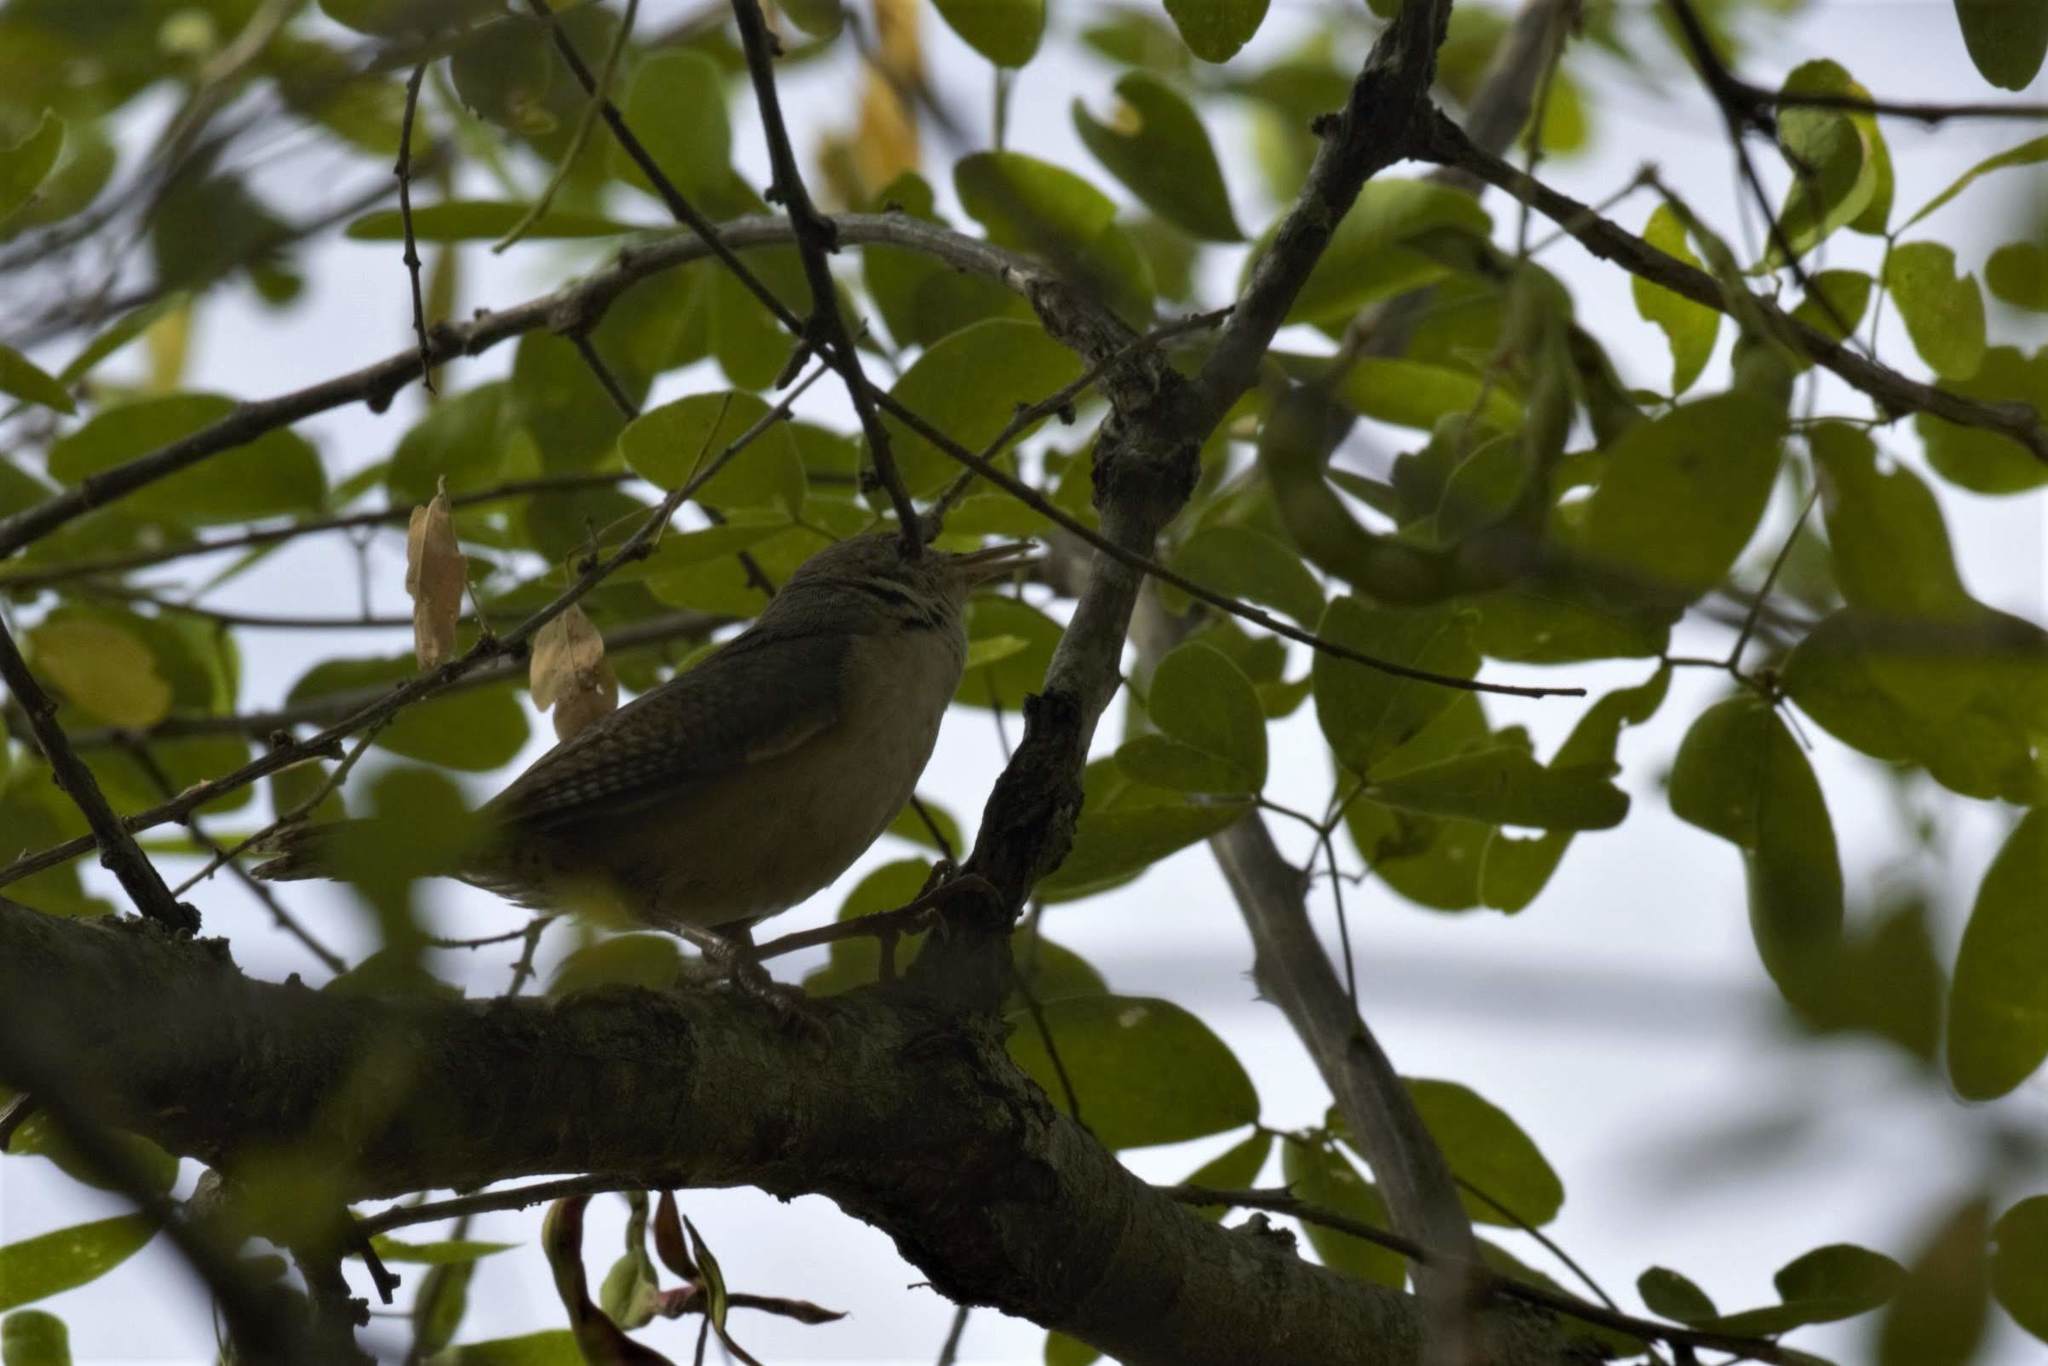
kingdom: Animalia
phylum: Chordata
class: Aves
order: Passeriformes
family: Troglodytidae
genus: Troglodytes
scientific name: Troglodytes aedon
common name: House wren
